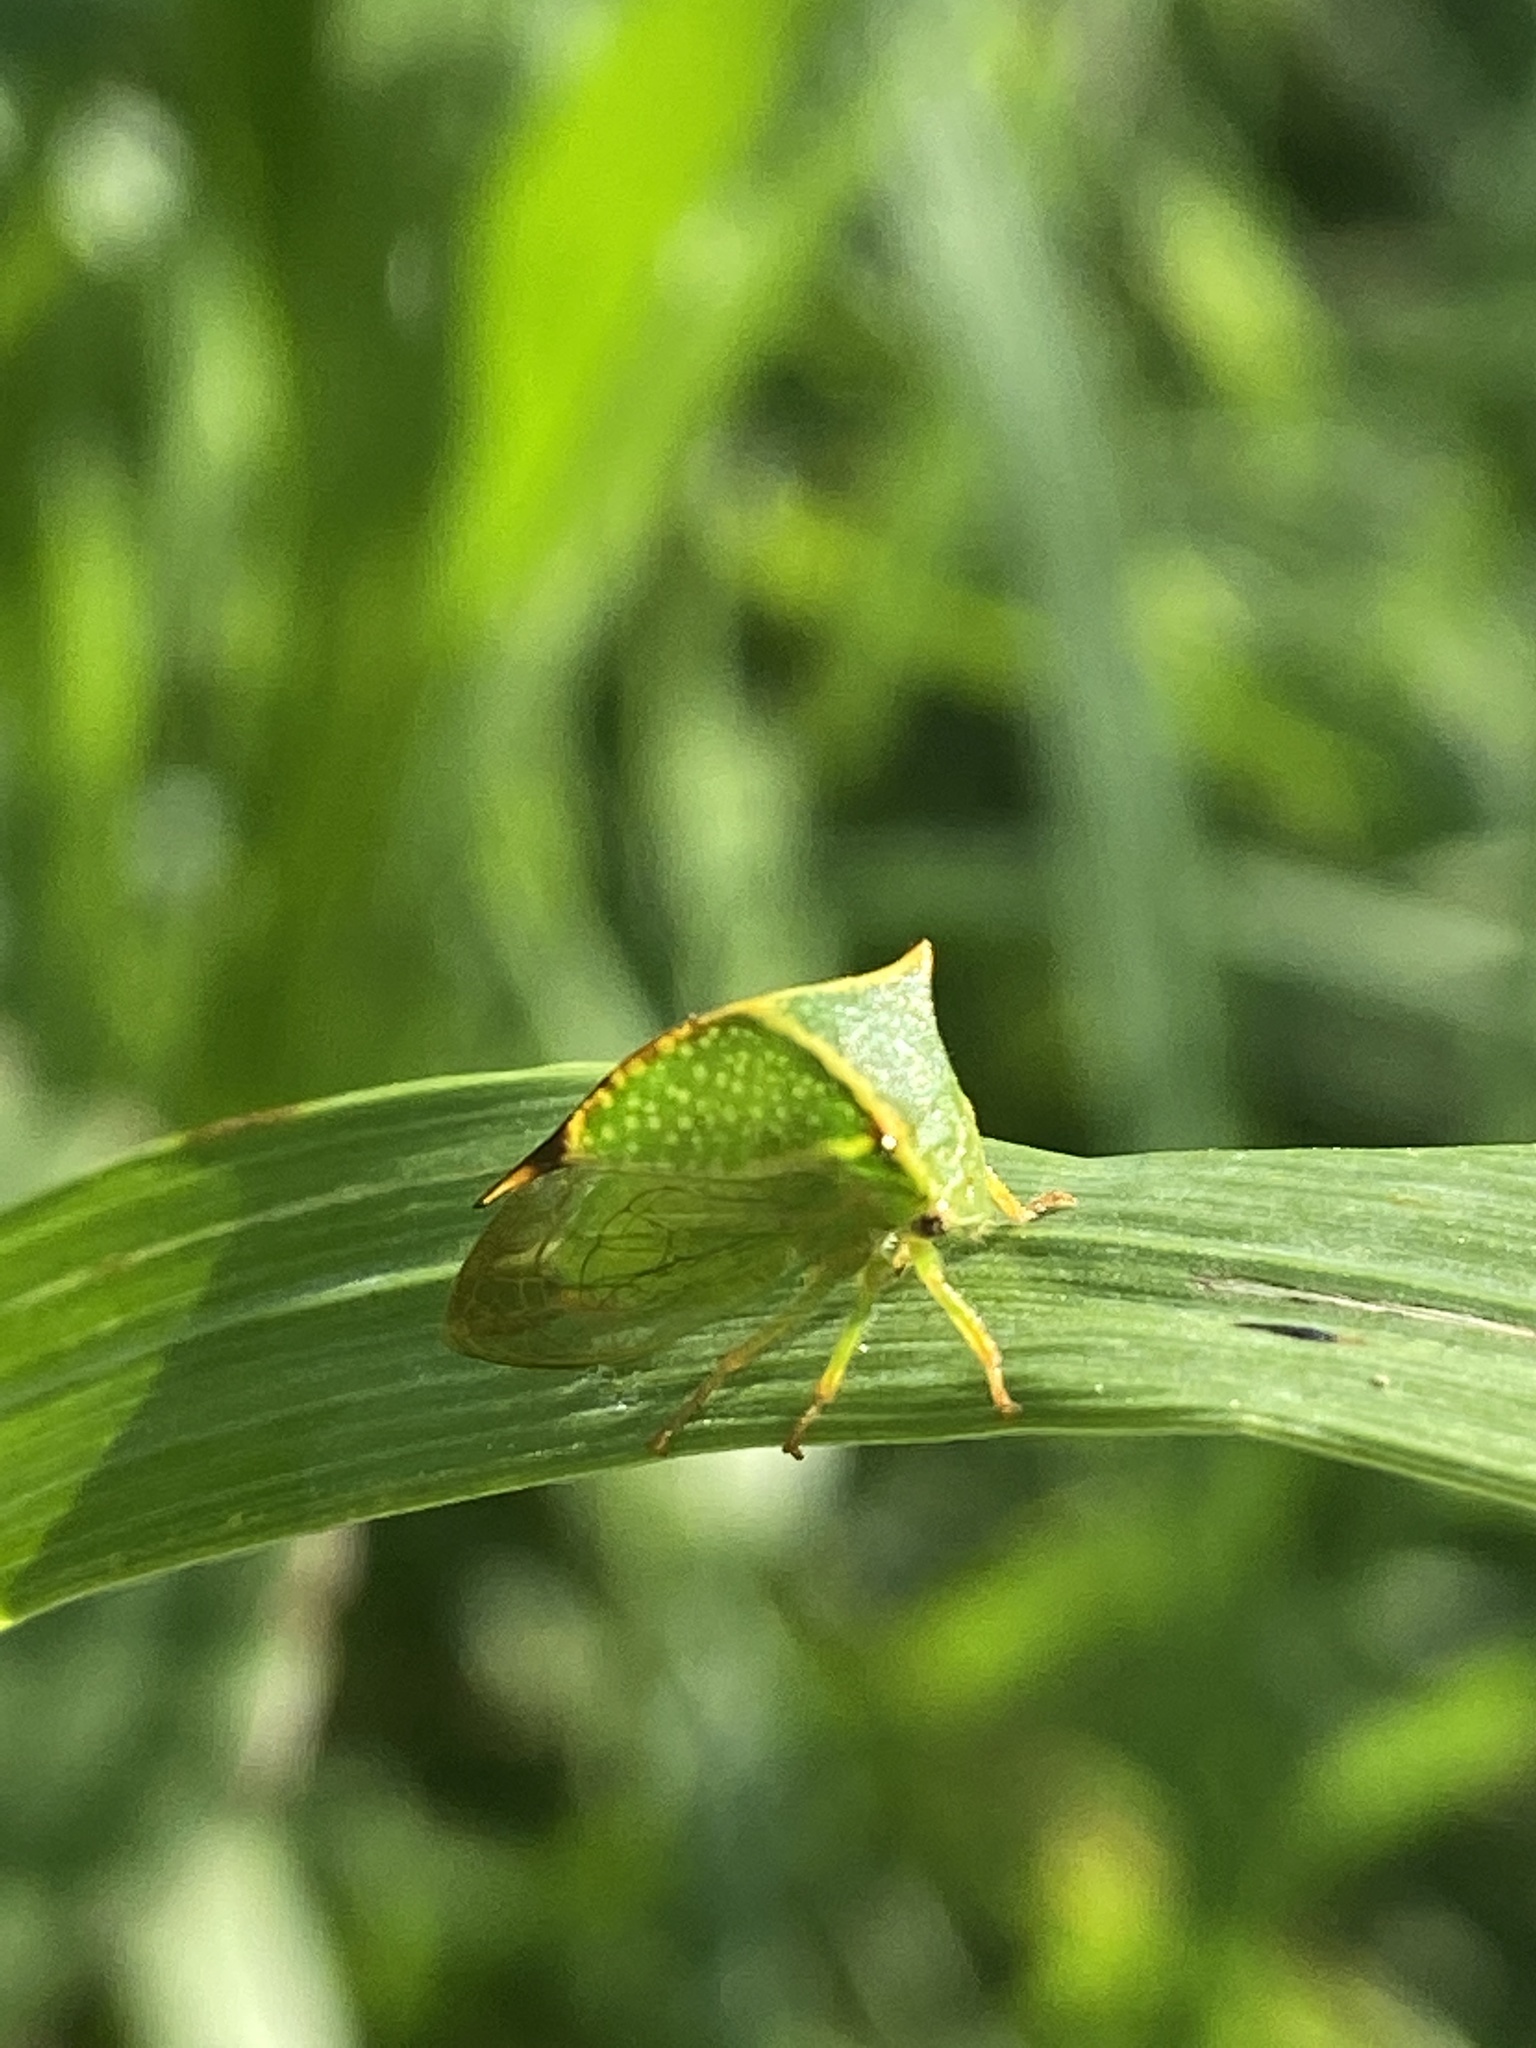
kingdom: Animalia
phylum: Arthropoda
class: Insecta
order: Hemiptera
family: Membracidae
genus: Stictocephala
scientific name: Stictocephala bisonia
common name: American buffalo treehopper
